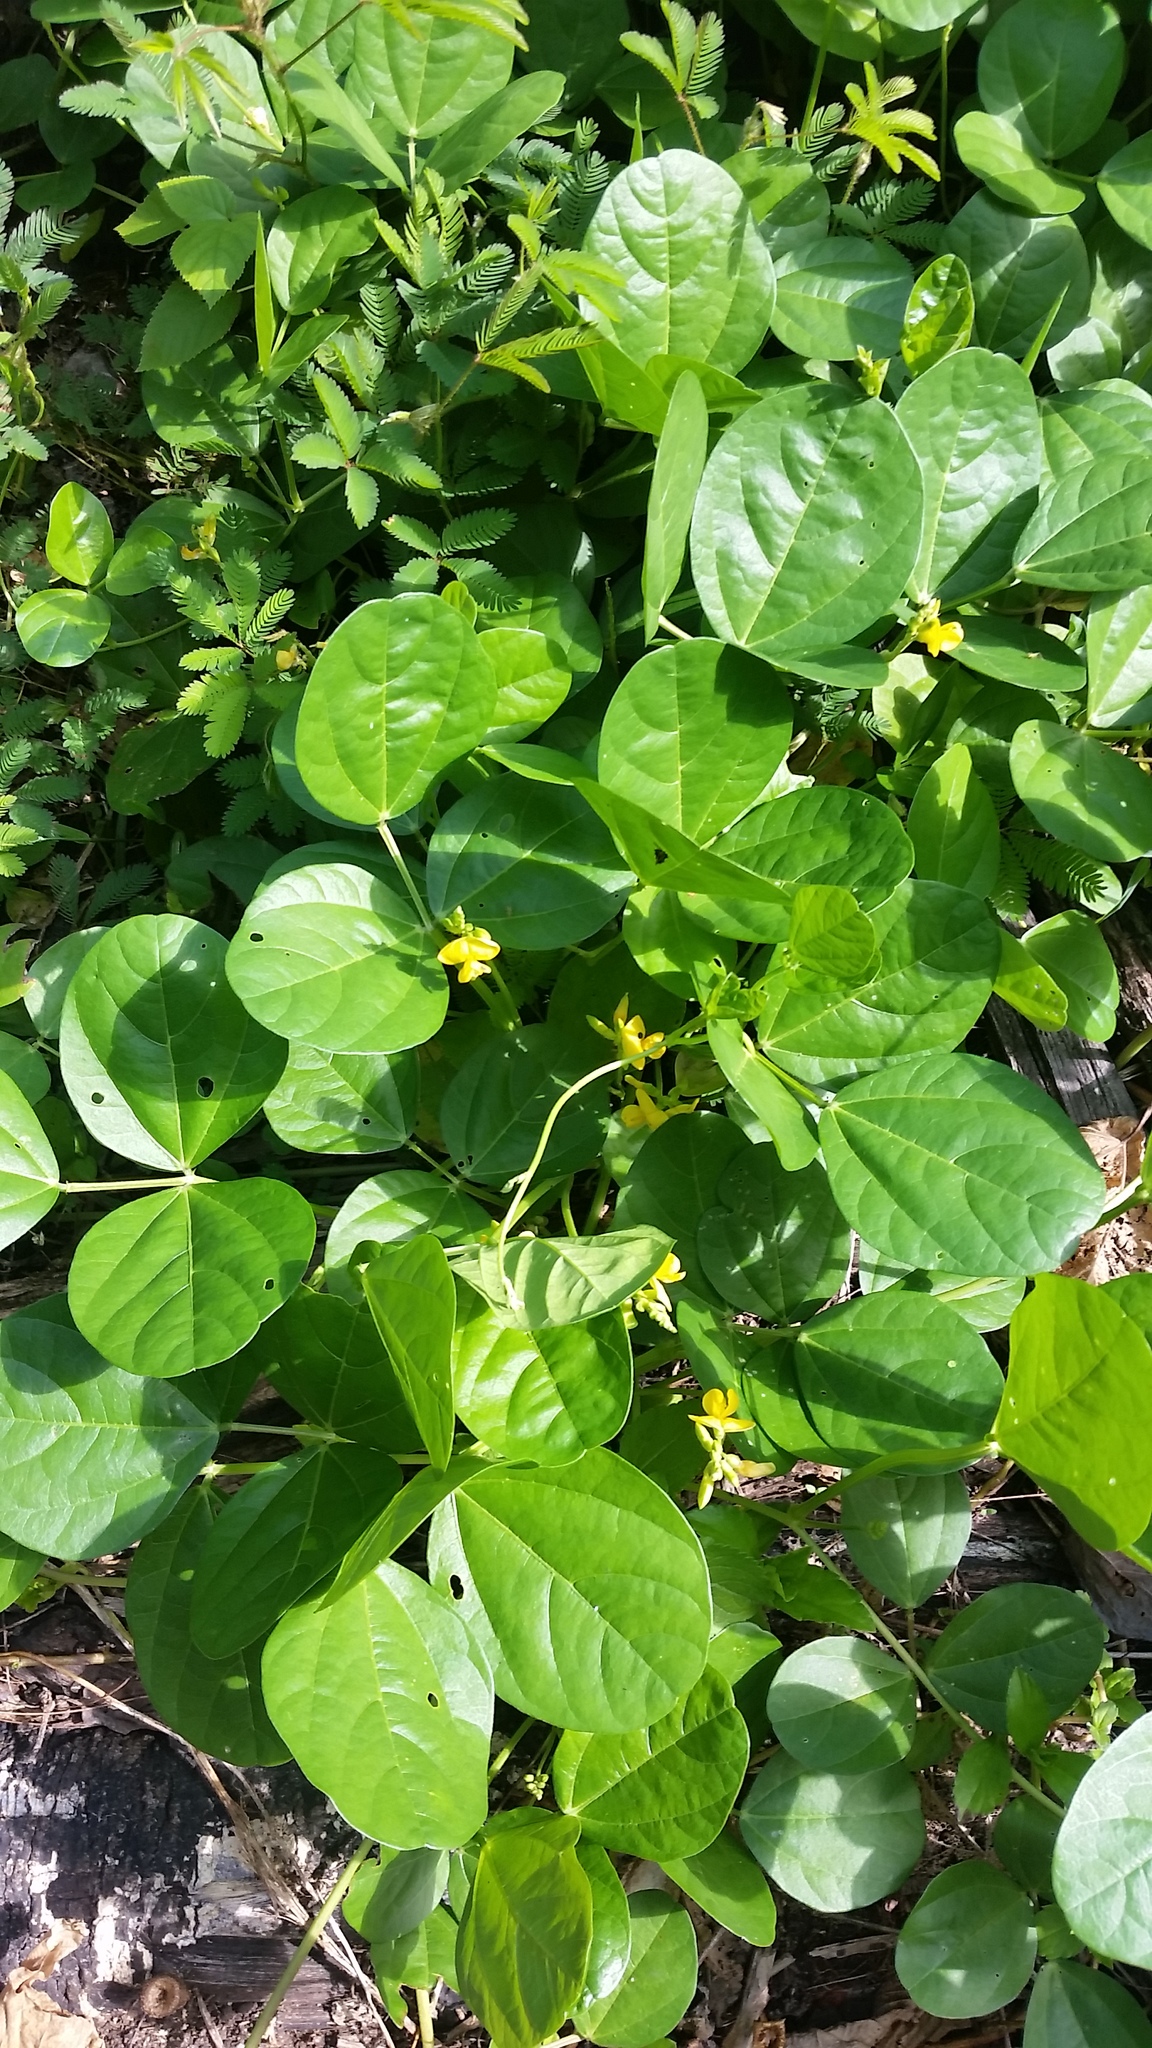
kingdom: Plantae
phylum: Tracheophyta
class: Magnoliopsida
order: Fabales
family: Fabaceae
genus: Vigna
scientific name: Vigna marina
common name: Dune-bean
